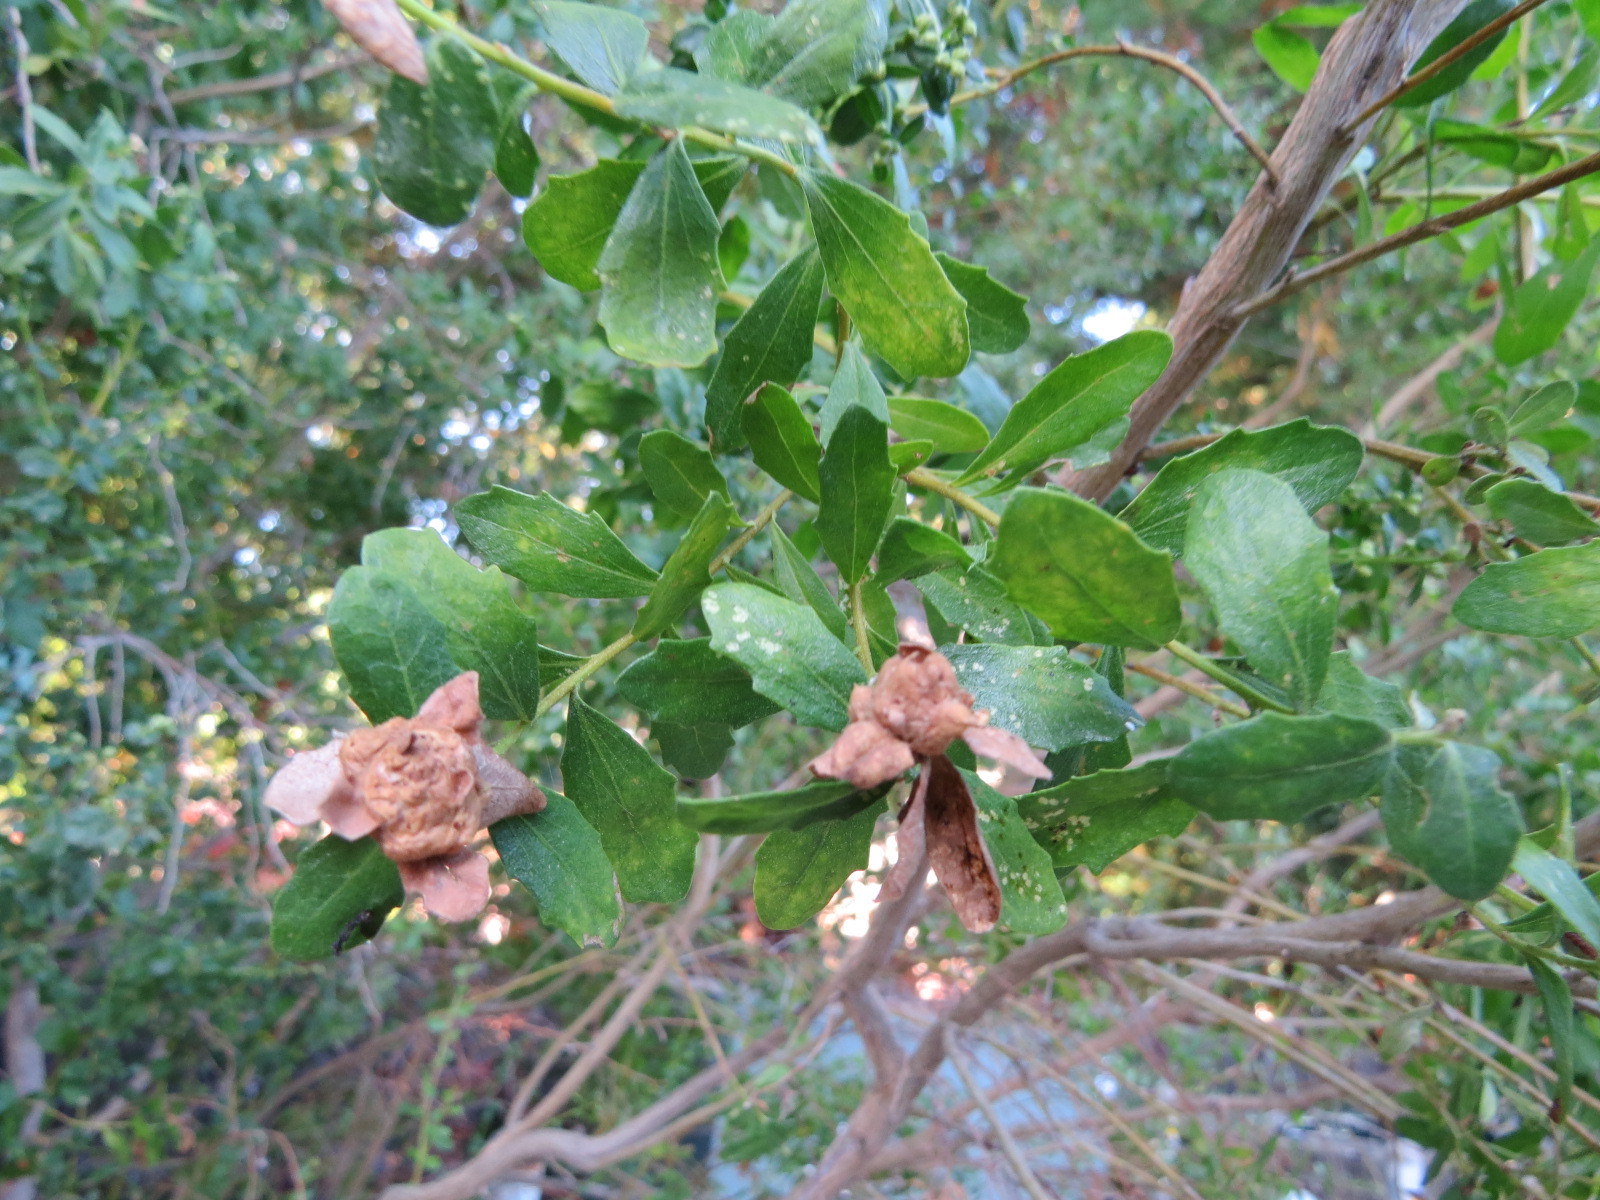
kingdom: Animalia
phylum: Arthropoda
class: Insecta
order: Diptera
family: Cecidomyiidae
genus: Rhopalomyia
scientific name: Rhopalomyia californica
